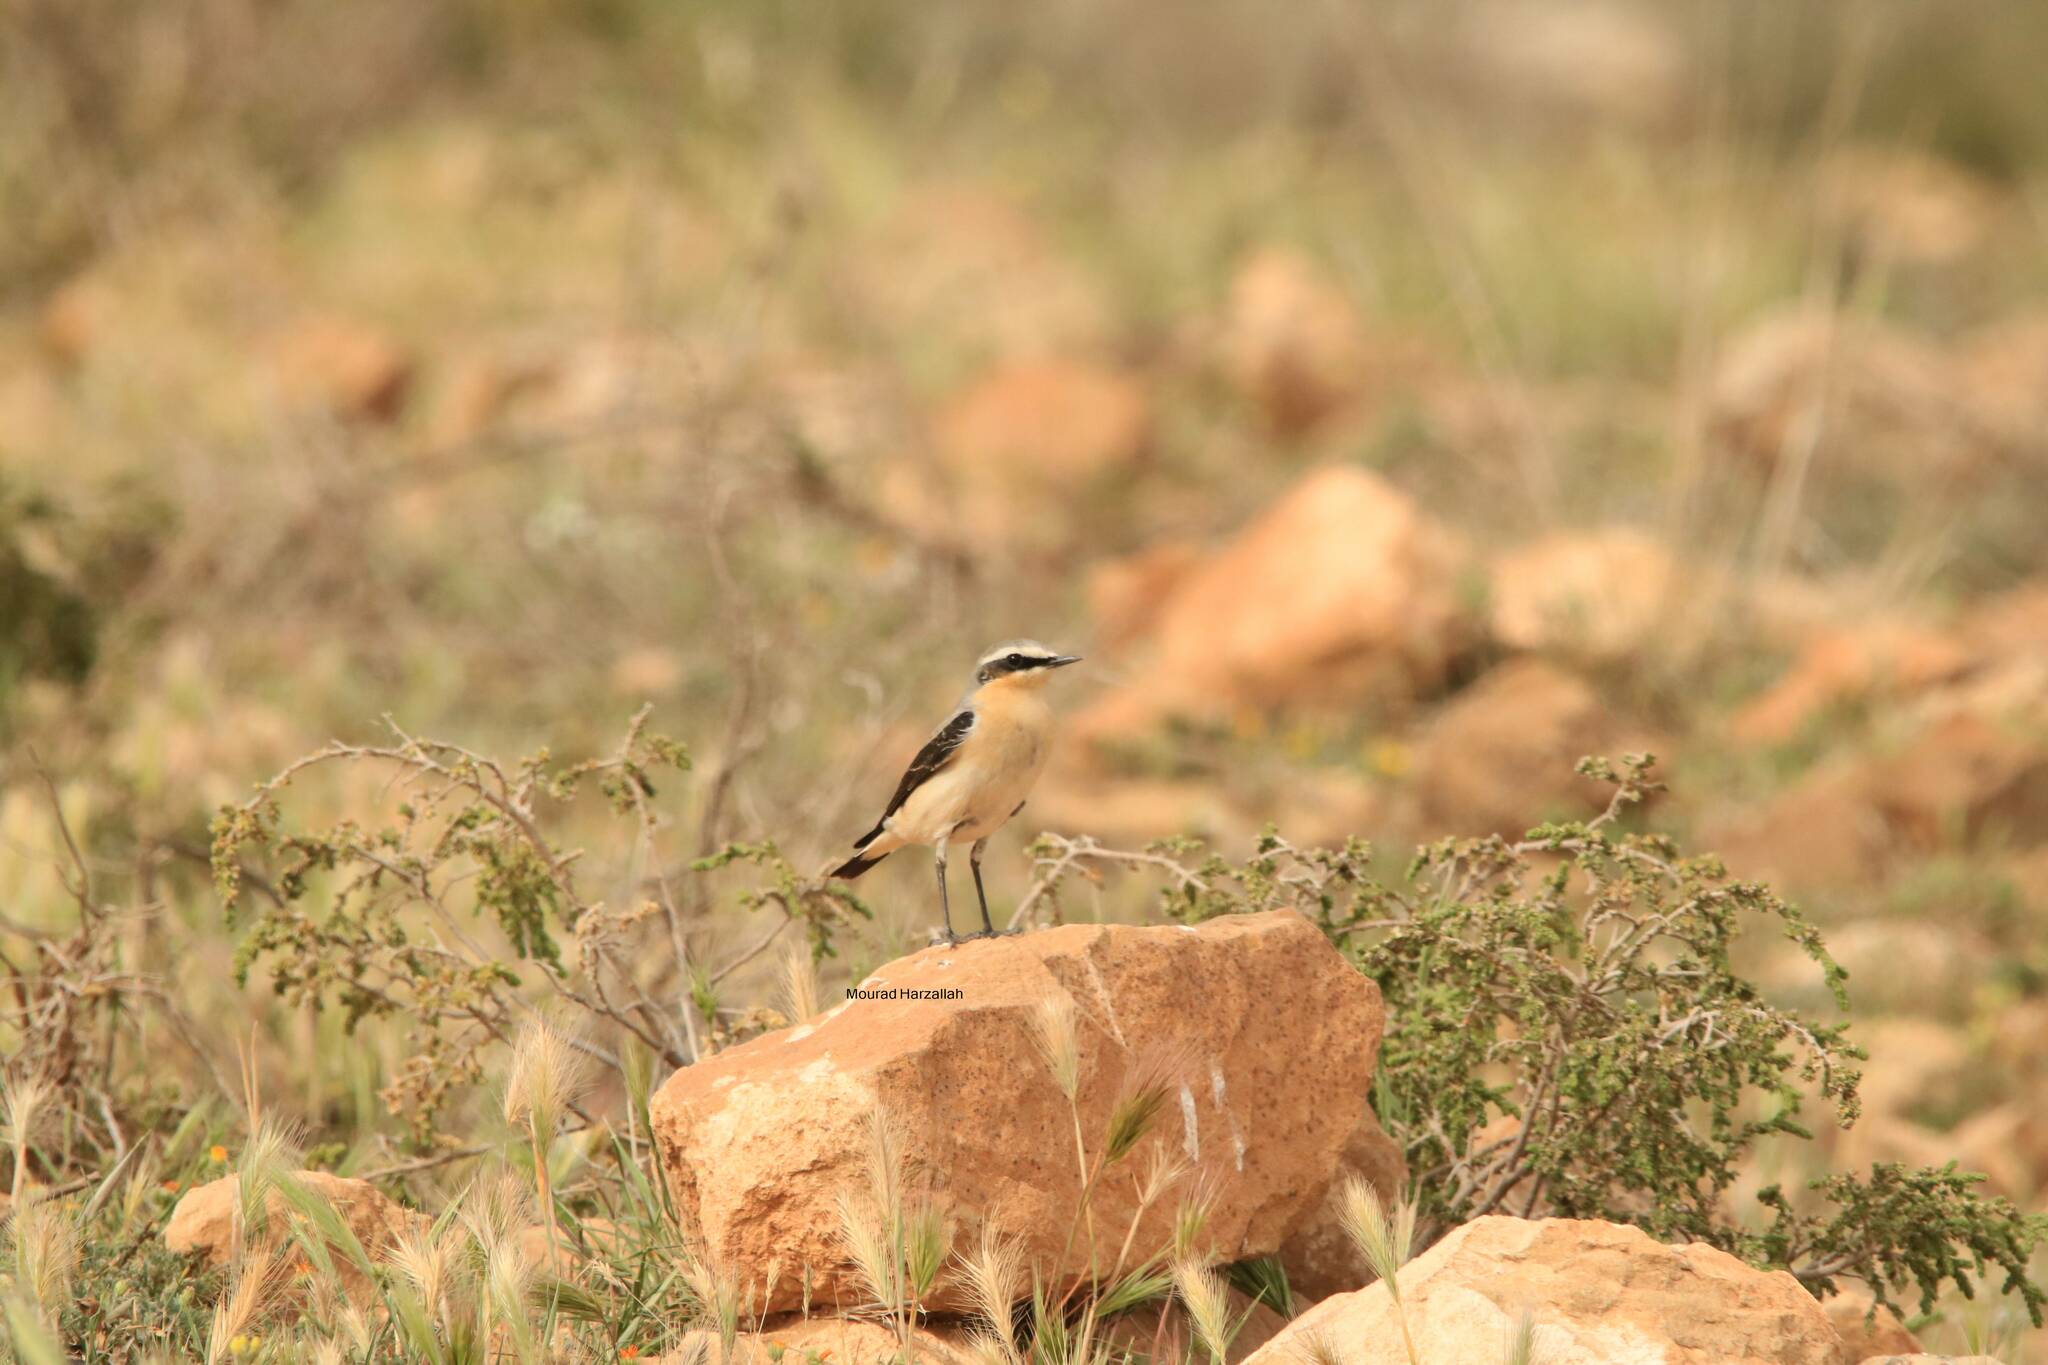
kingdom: Animalia
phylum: Chordata
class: Aves
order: Passeriformes
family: Muscicapidae
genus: Oenanthe
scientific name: Oenanthe oenanthe
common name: Northern wheatear
